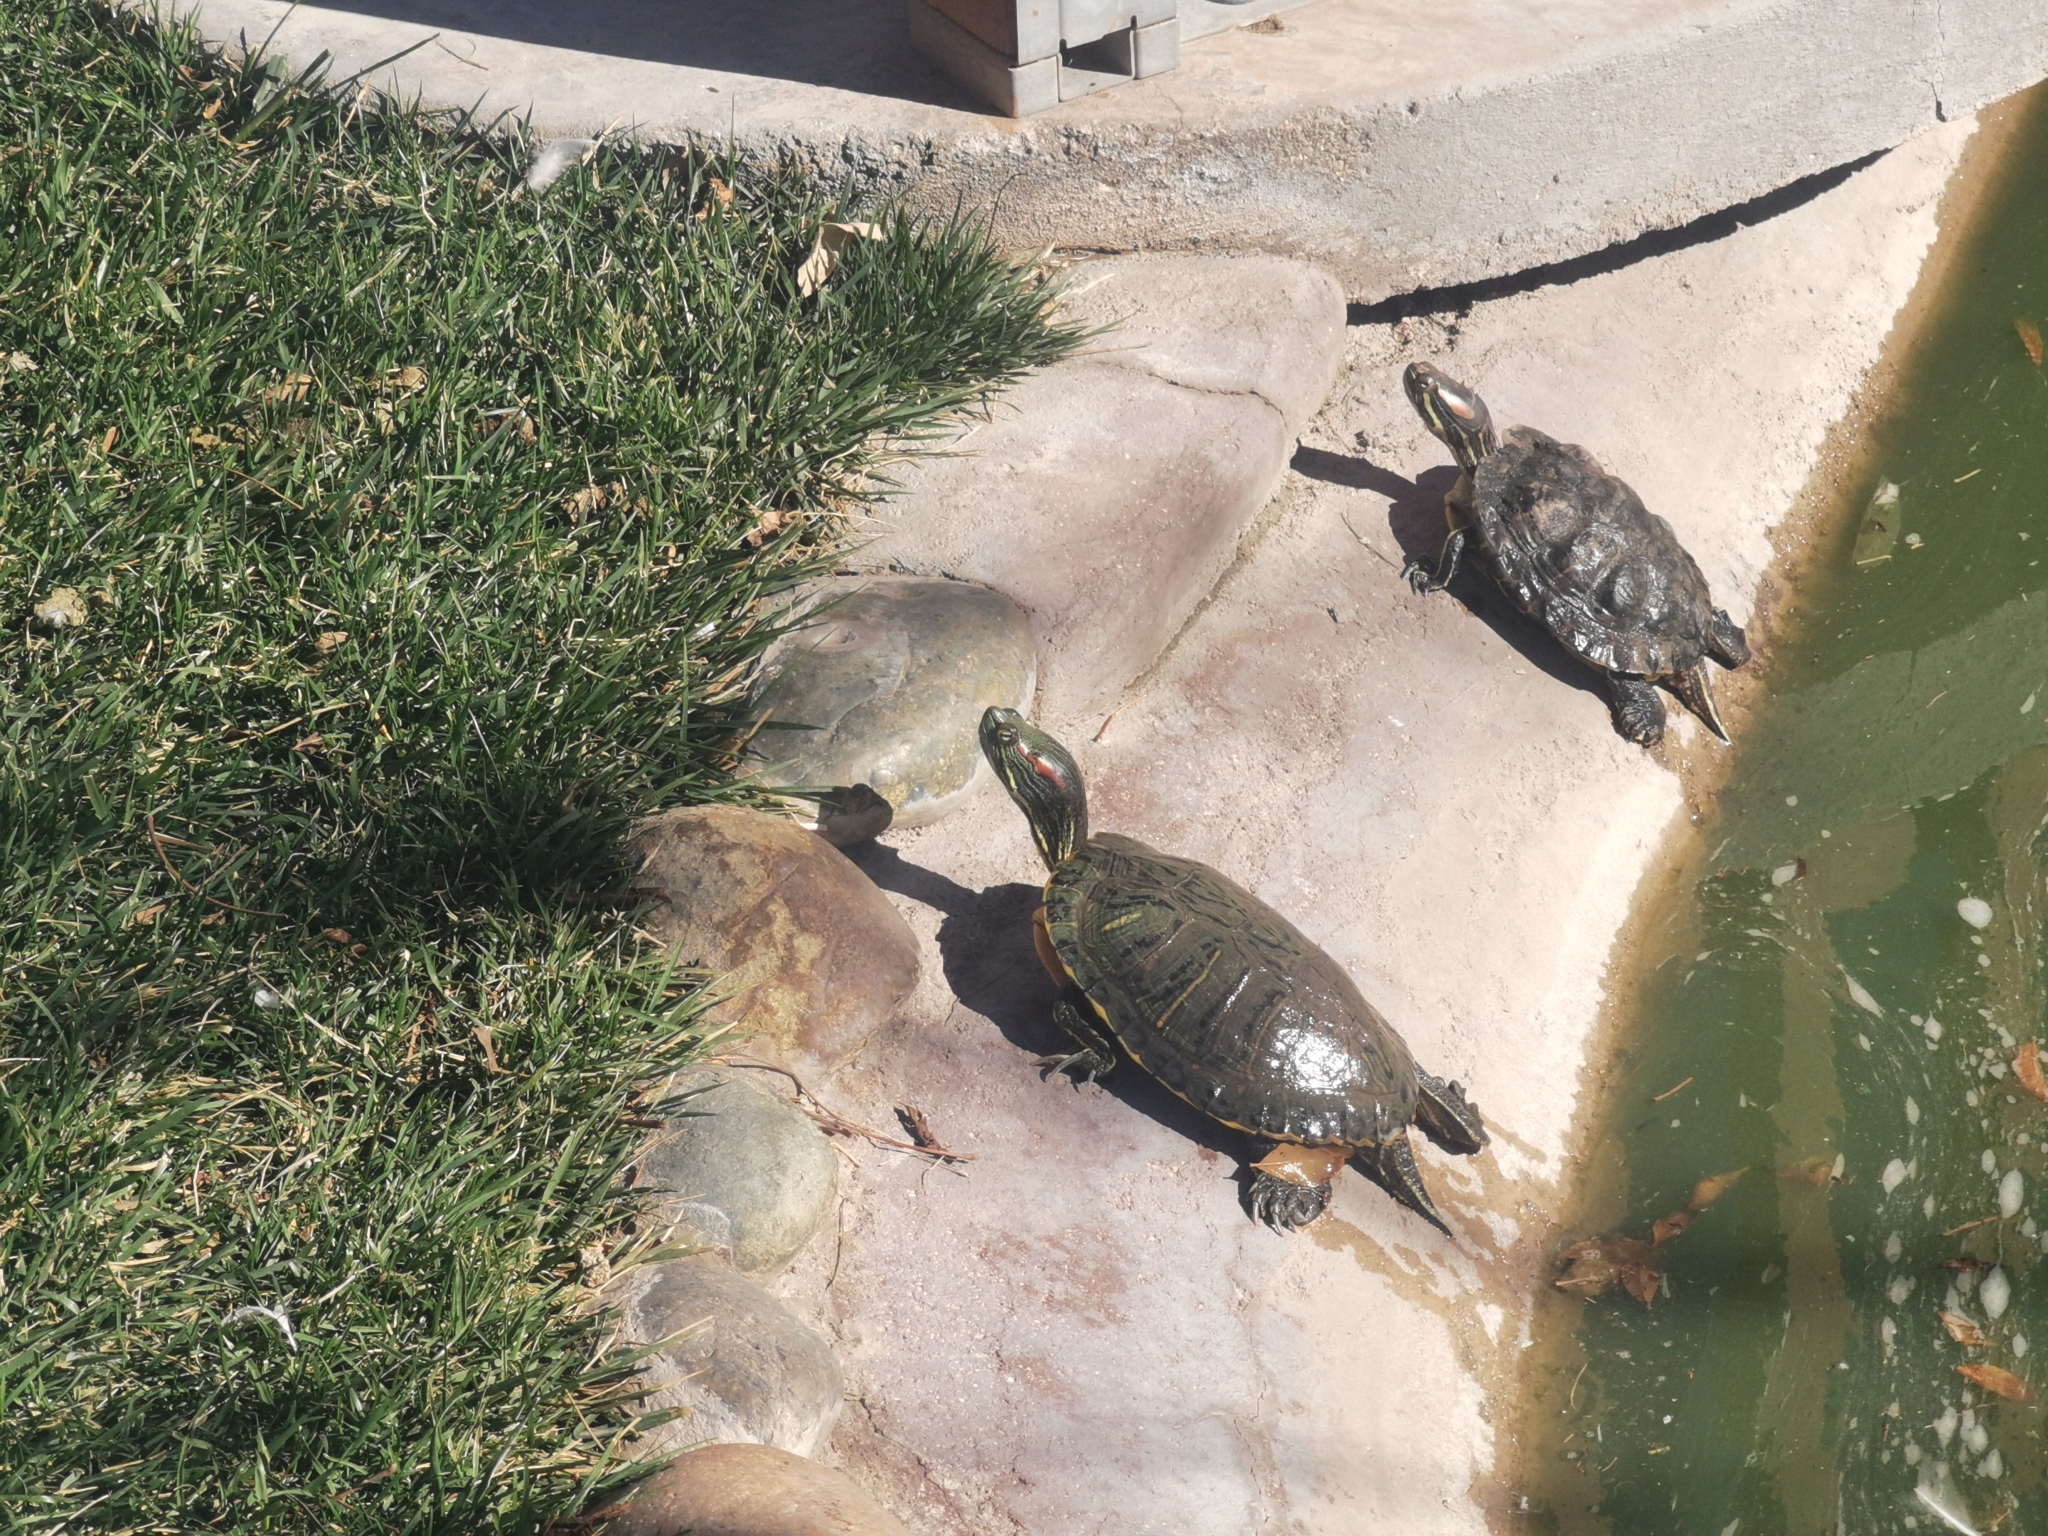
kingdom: Animalia
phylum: Chordata
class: Testudines
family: Emydidae
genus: Trachemys
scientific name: Trachemys scripta
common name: Slider
